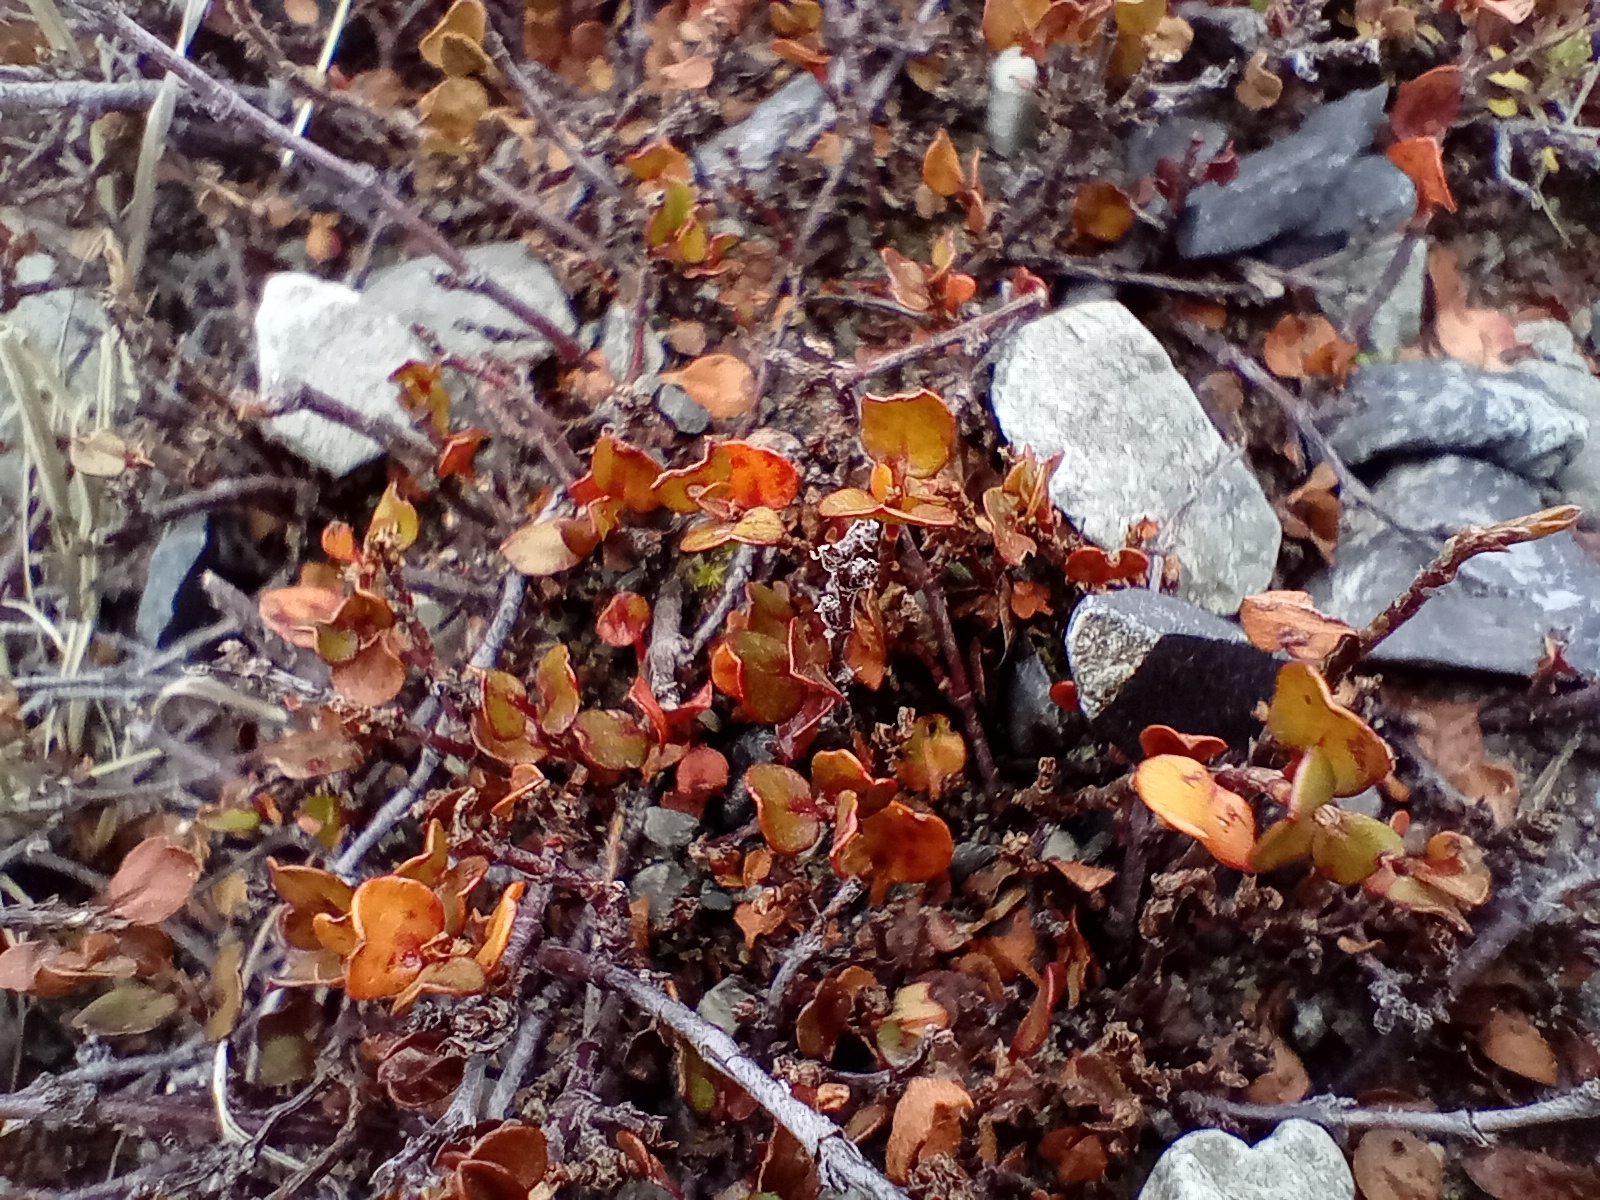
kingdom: Plantae
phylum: Tracheophyta
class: Magnoliopsida
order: Caryophyllales
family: Polygonaceae
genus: Muehlenbeckia
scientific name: Muehlenbeckia axillaris
